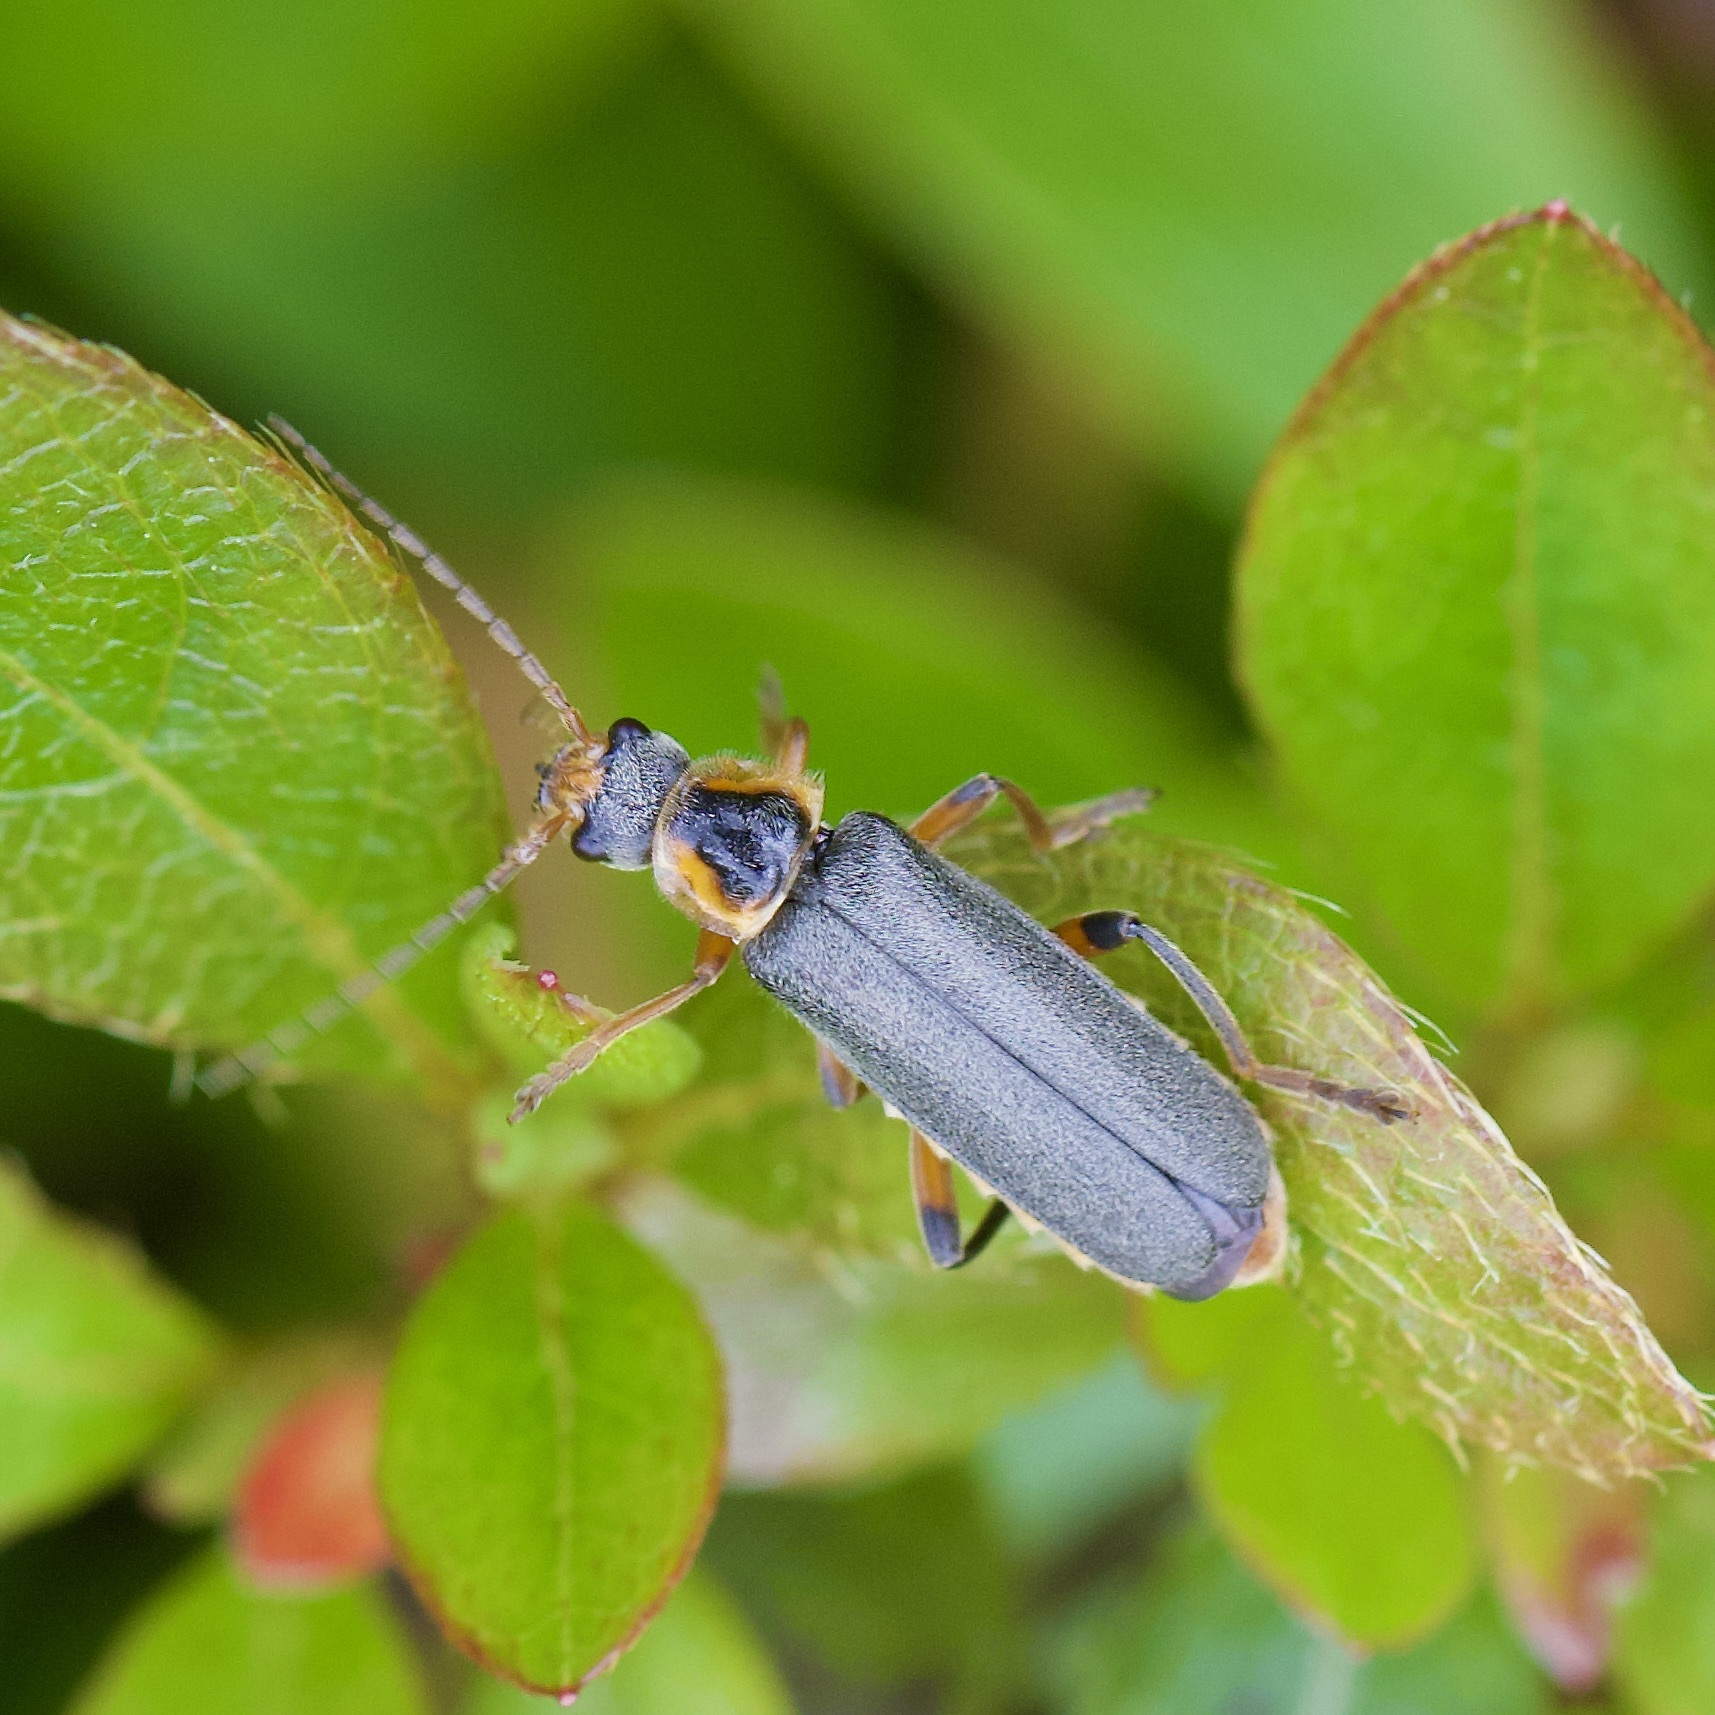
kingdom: Animalia
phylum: Arthropoda
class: Insecta
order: Coleoptera
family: Cantharidae
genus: Cantharis
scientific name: Cantharis nigricans
